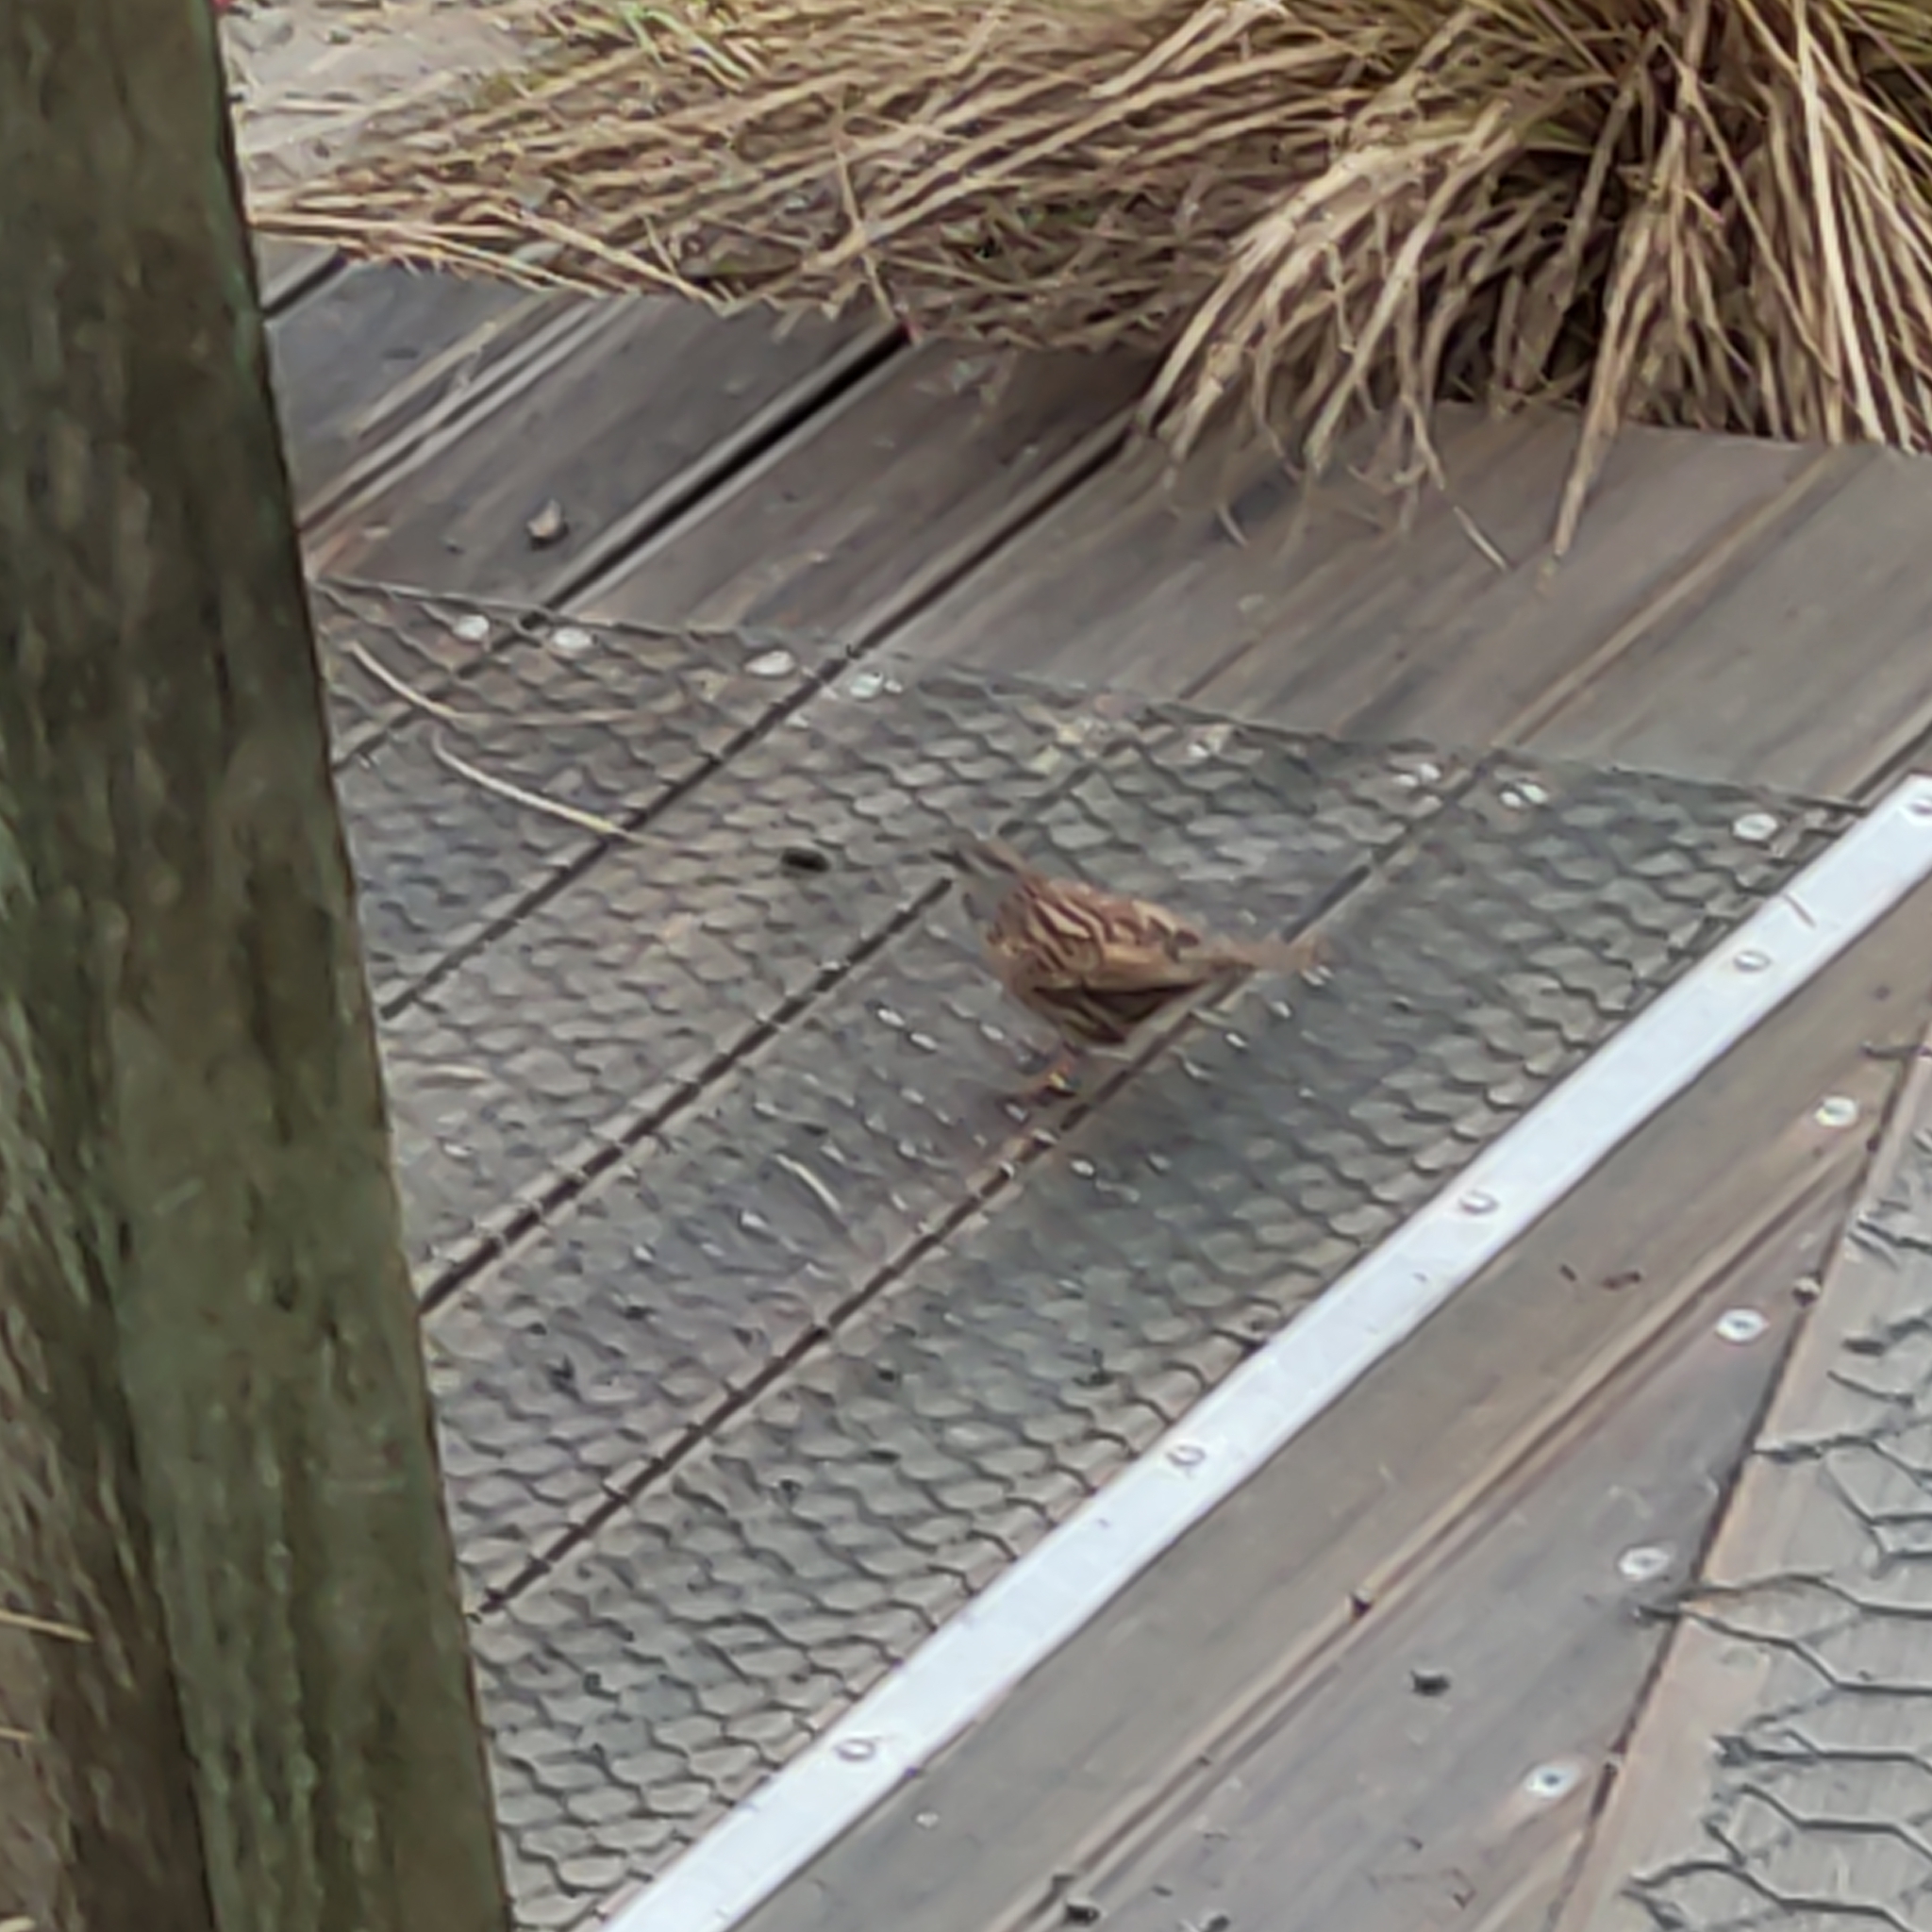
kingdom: Animalia
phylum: Chordata
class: Aves
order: Passeriformes
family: Prunellidae
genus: Prunella
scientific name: Prunella modularis
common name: Dunnock
